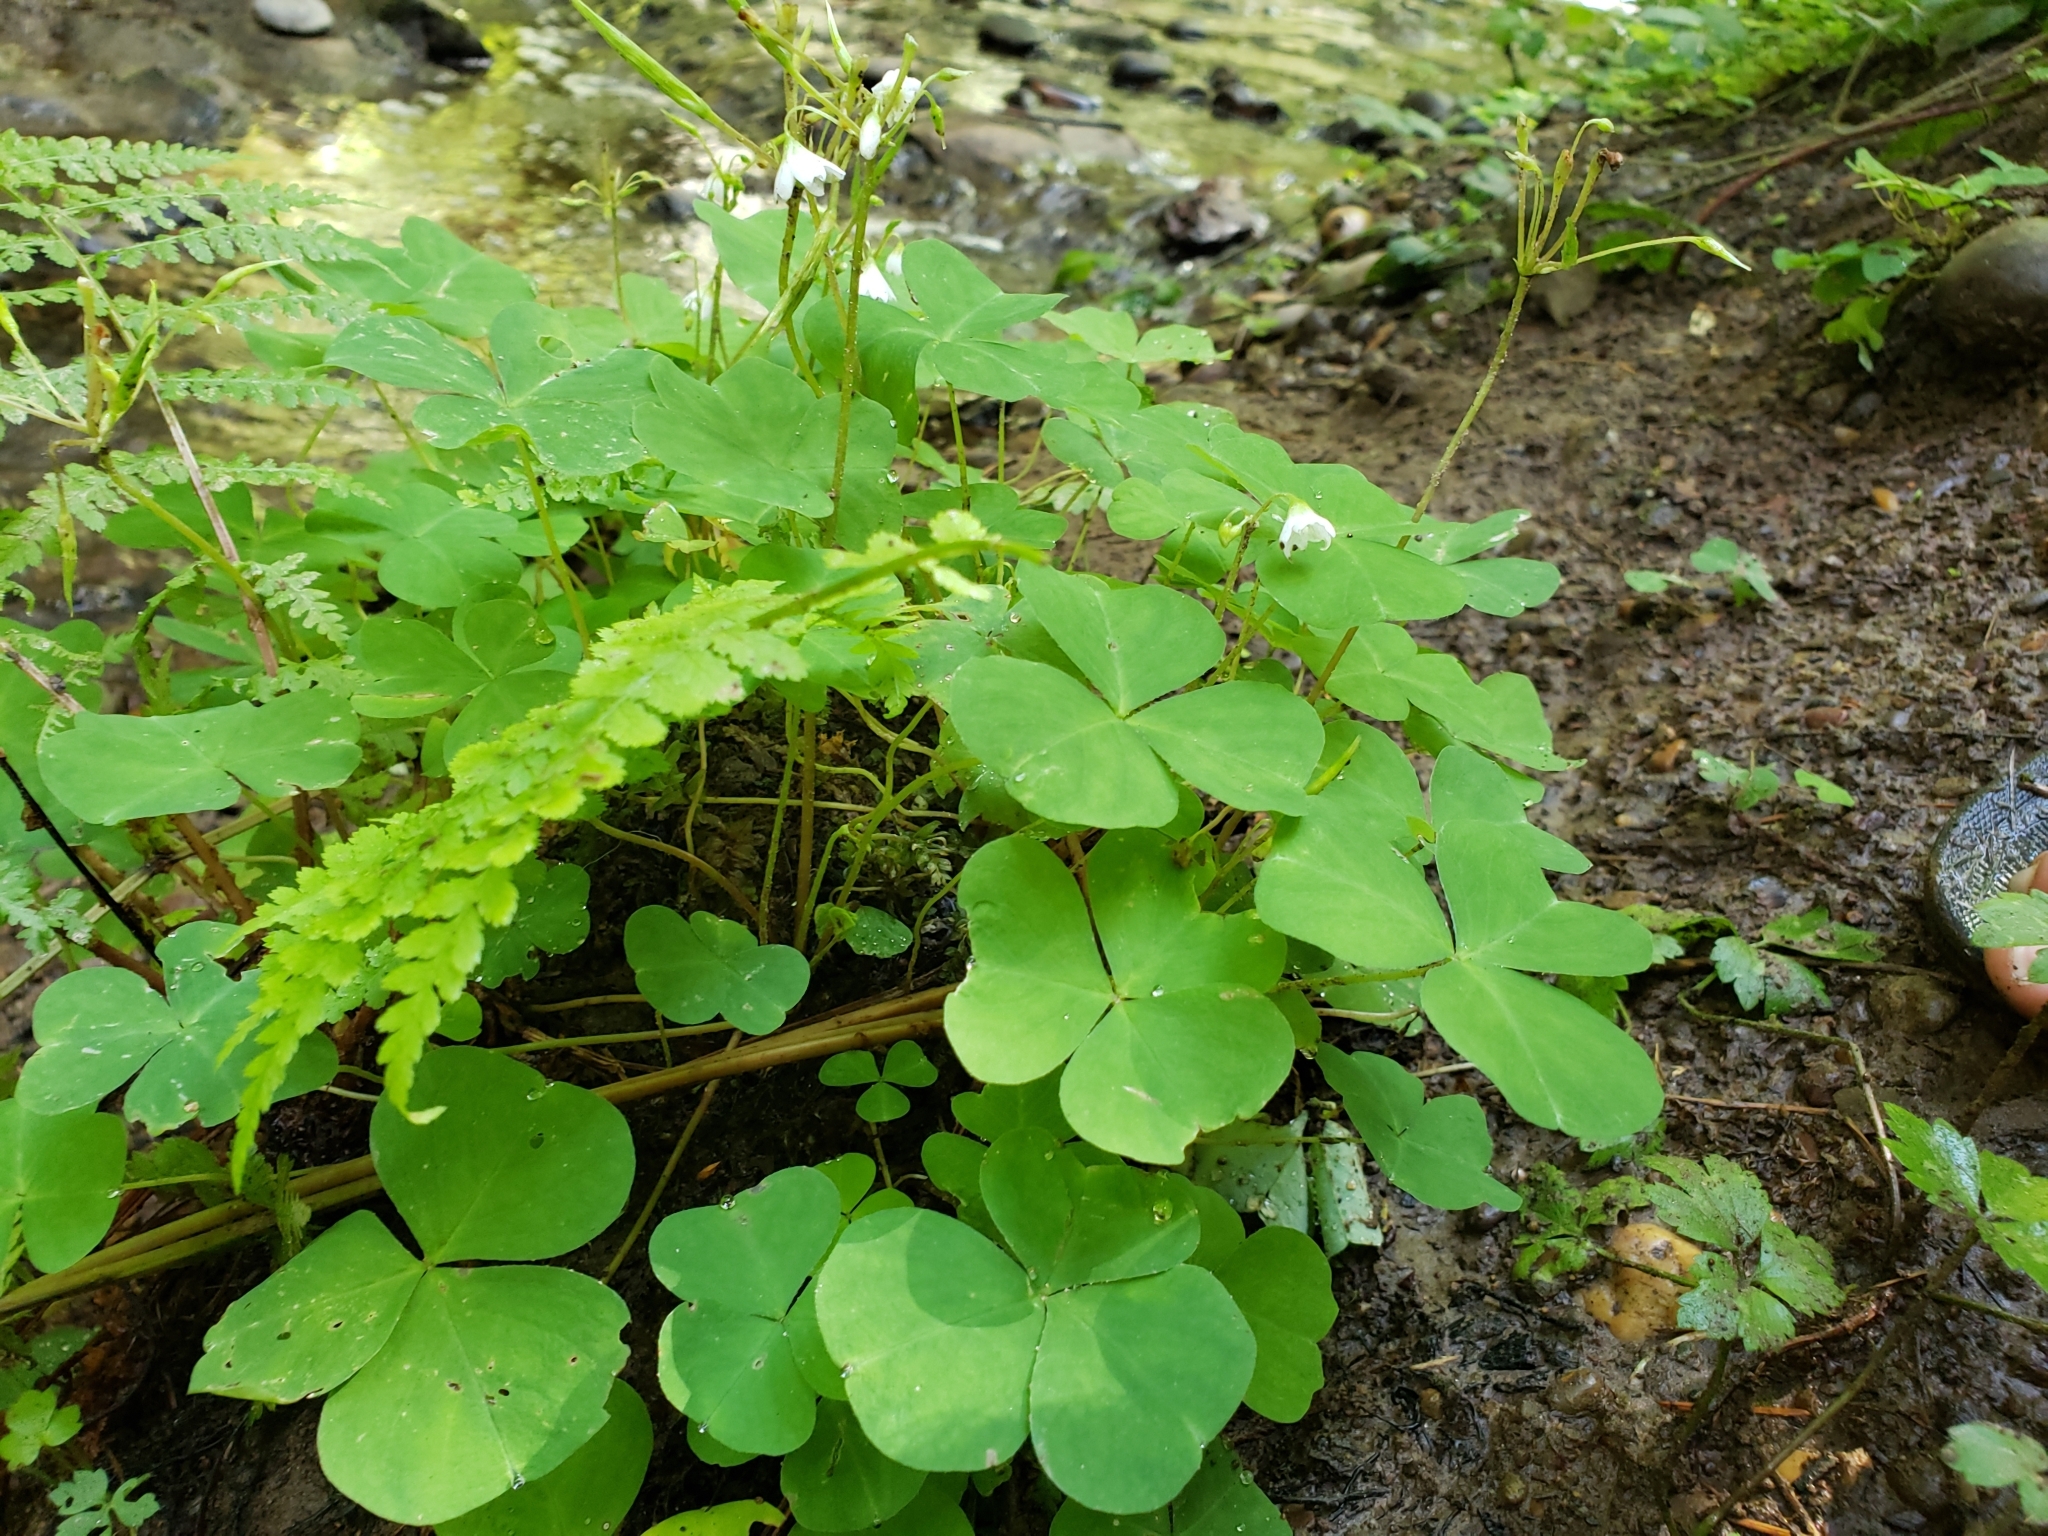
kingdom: Plantae
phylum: Tracheophyta
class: Magnoliopsida
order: Oxalidales
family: Oxalidaceae
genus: Oxalis
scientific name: Oxalis trilliifolia
